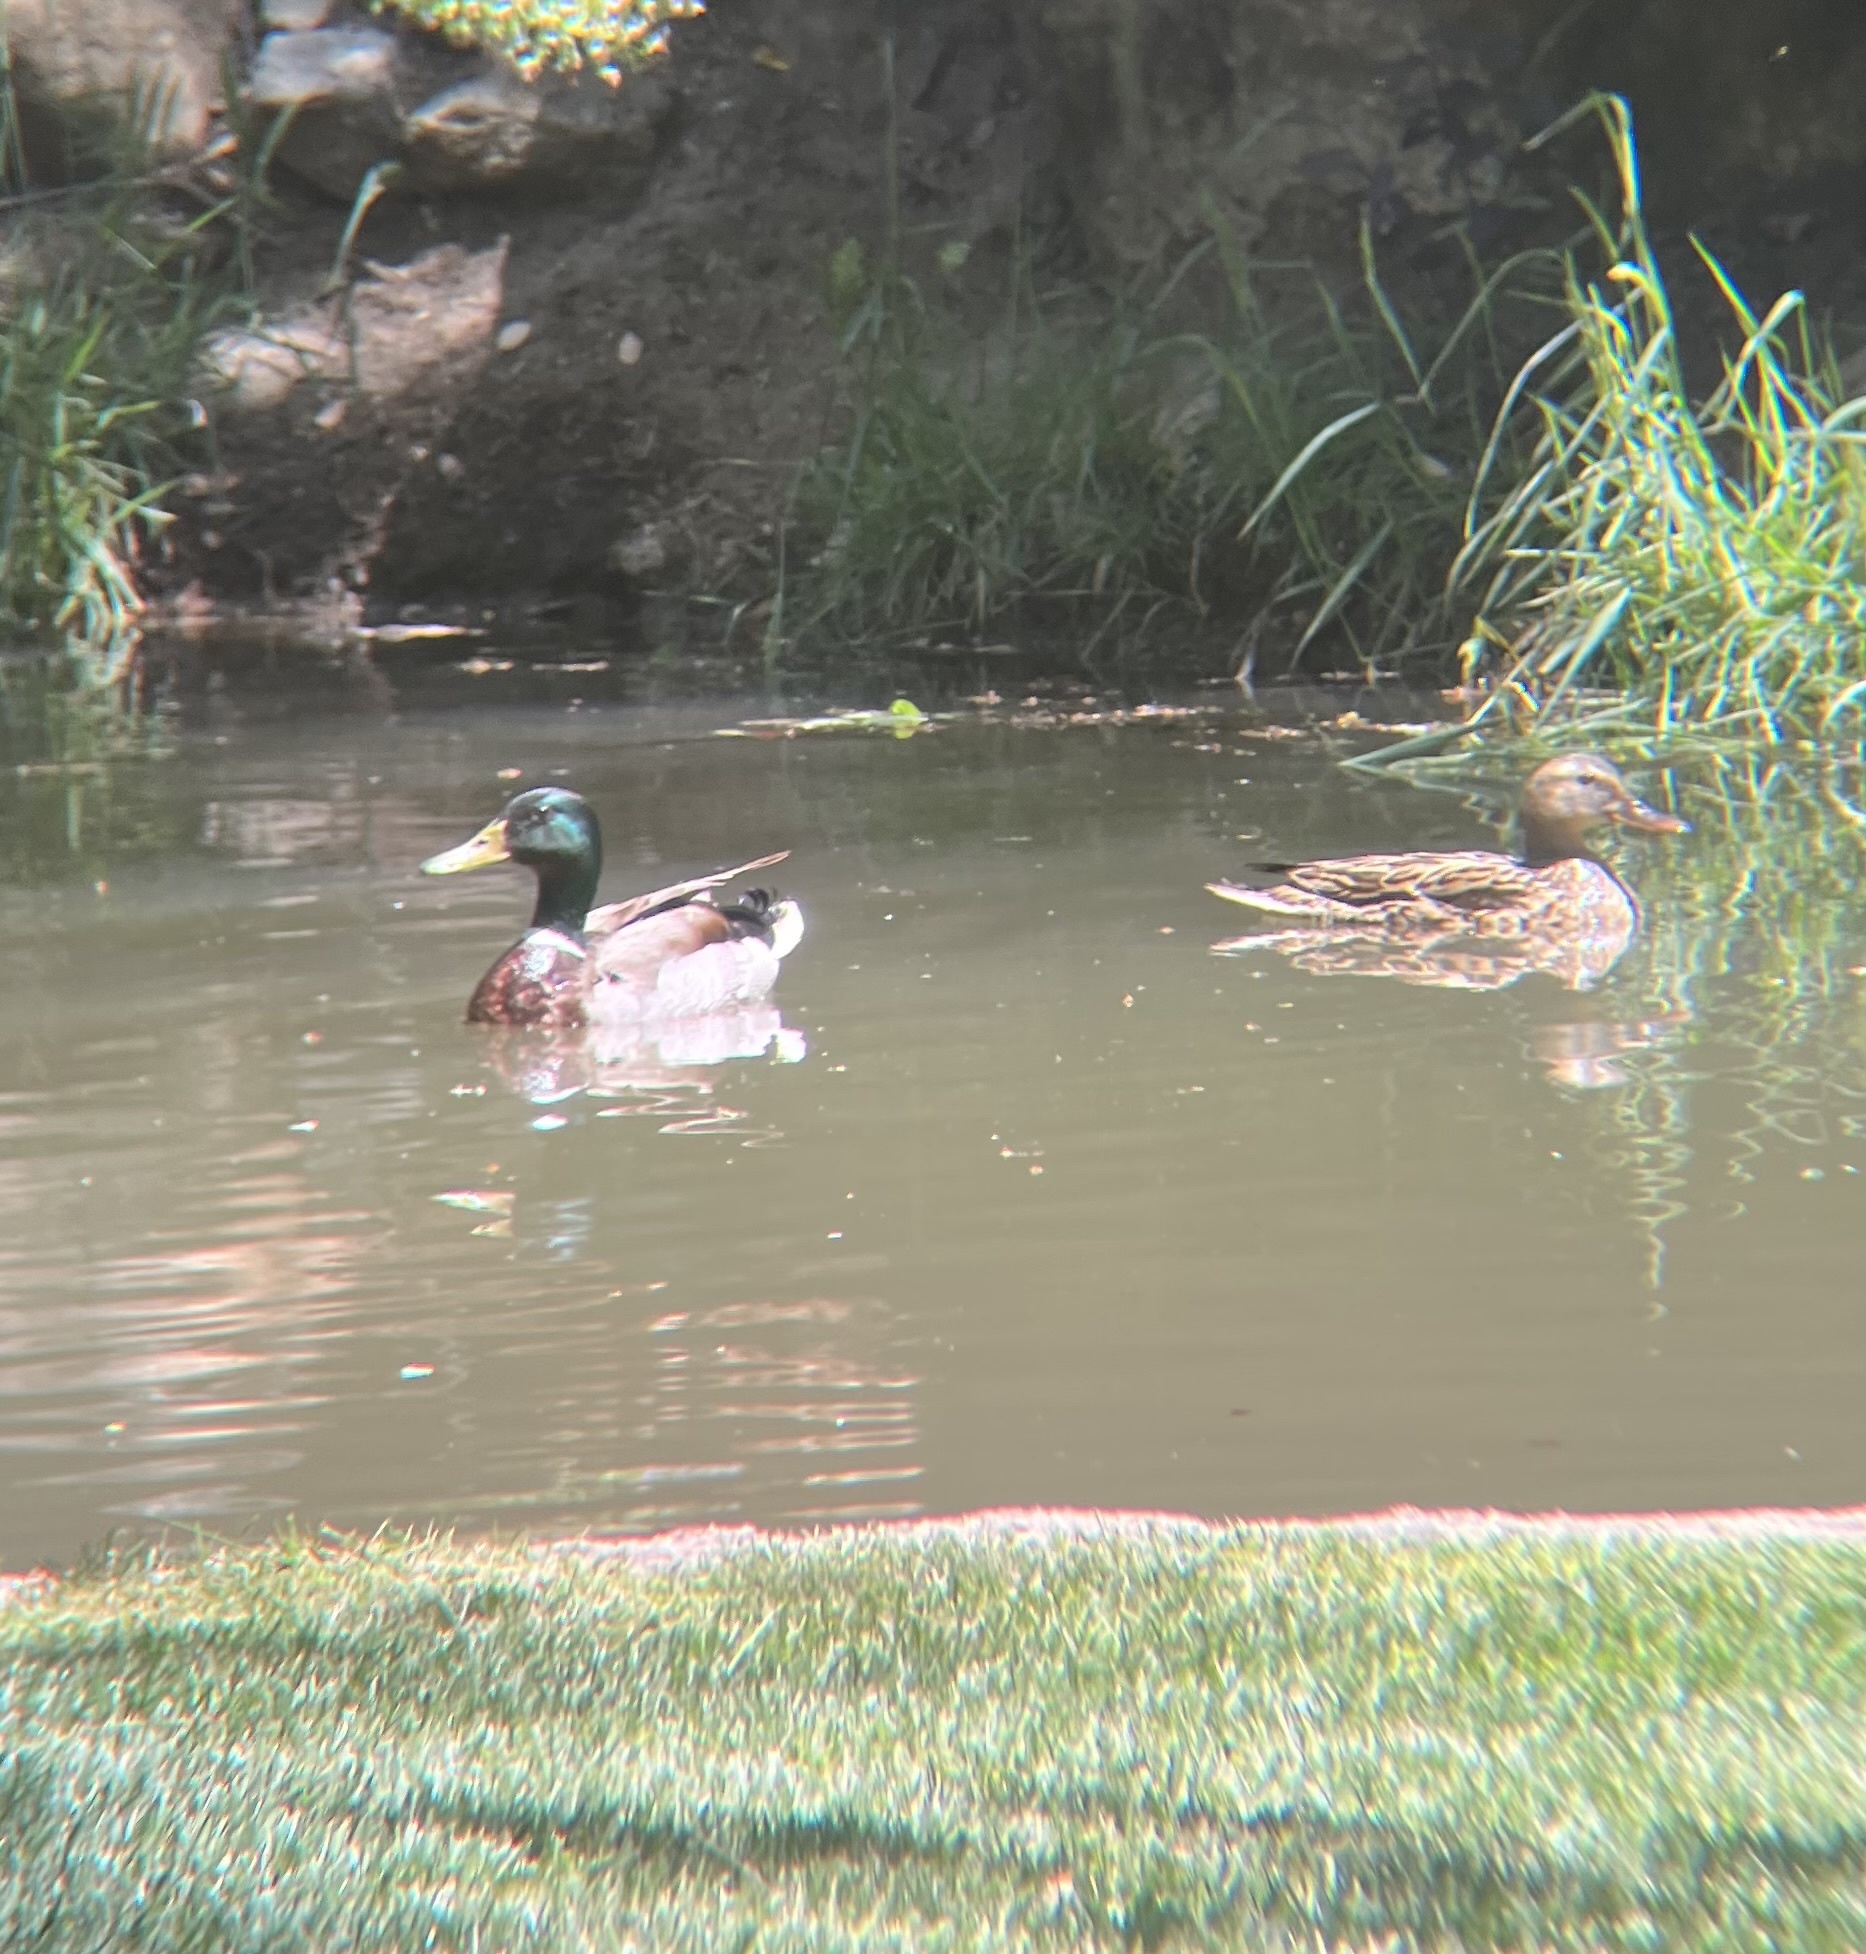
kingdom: Animalia
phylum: Chordata
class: Aves
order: Anseriformes
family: Anatidae
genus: Anas
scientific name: Anas platyrhynchos
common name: Mallard
